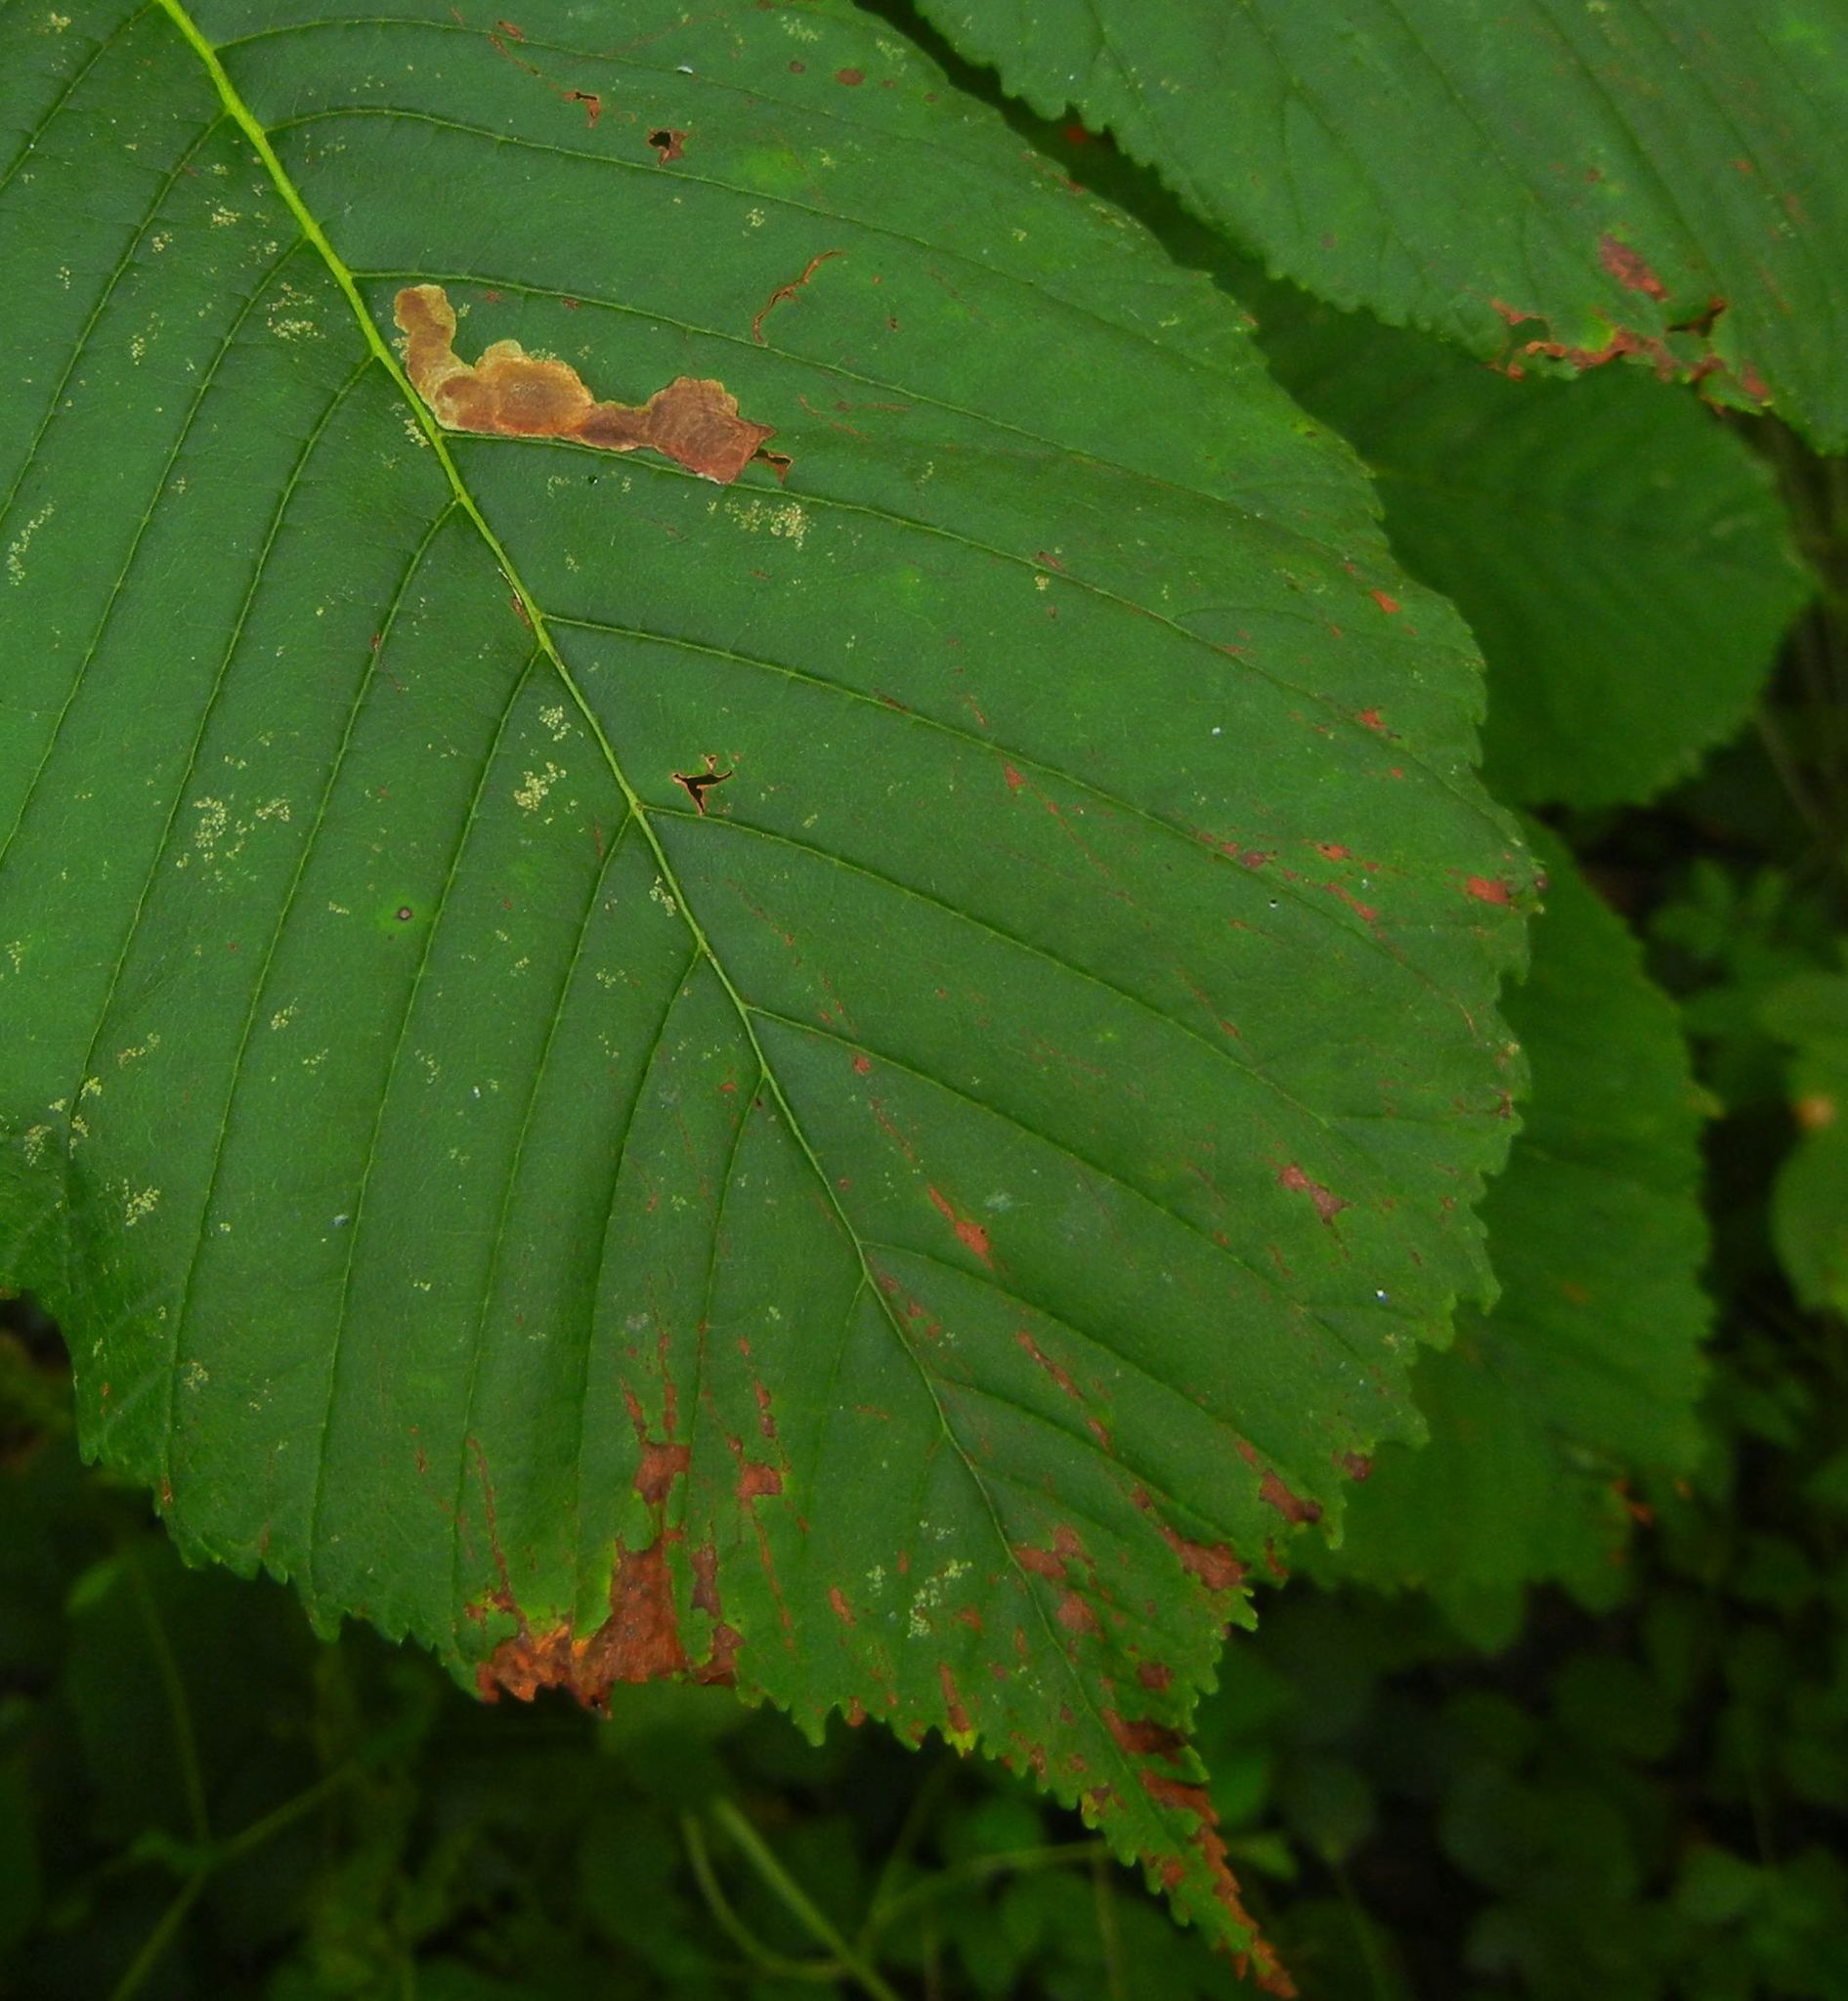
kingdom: Animalia
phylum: Arthropoda
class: Insecta
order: Lepidoptera
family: Gracillariidae
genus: Cameraria
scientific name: Cameraria ohridella
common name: Horse-chestnut leaf-miner
